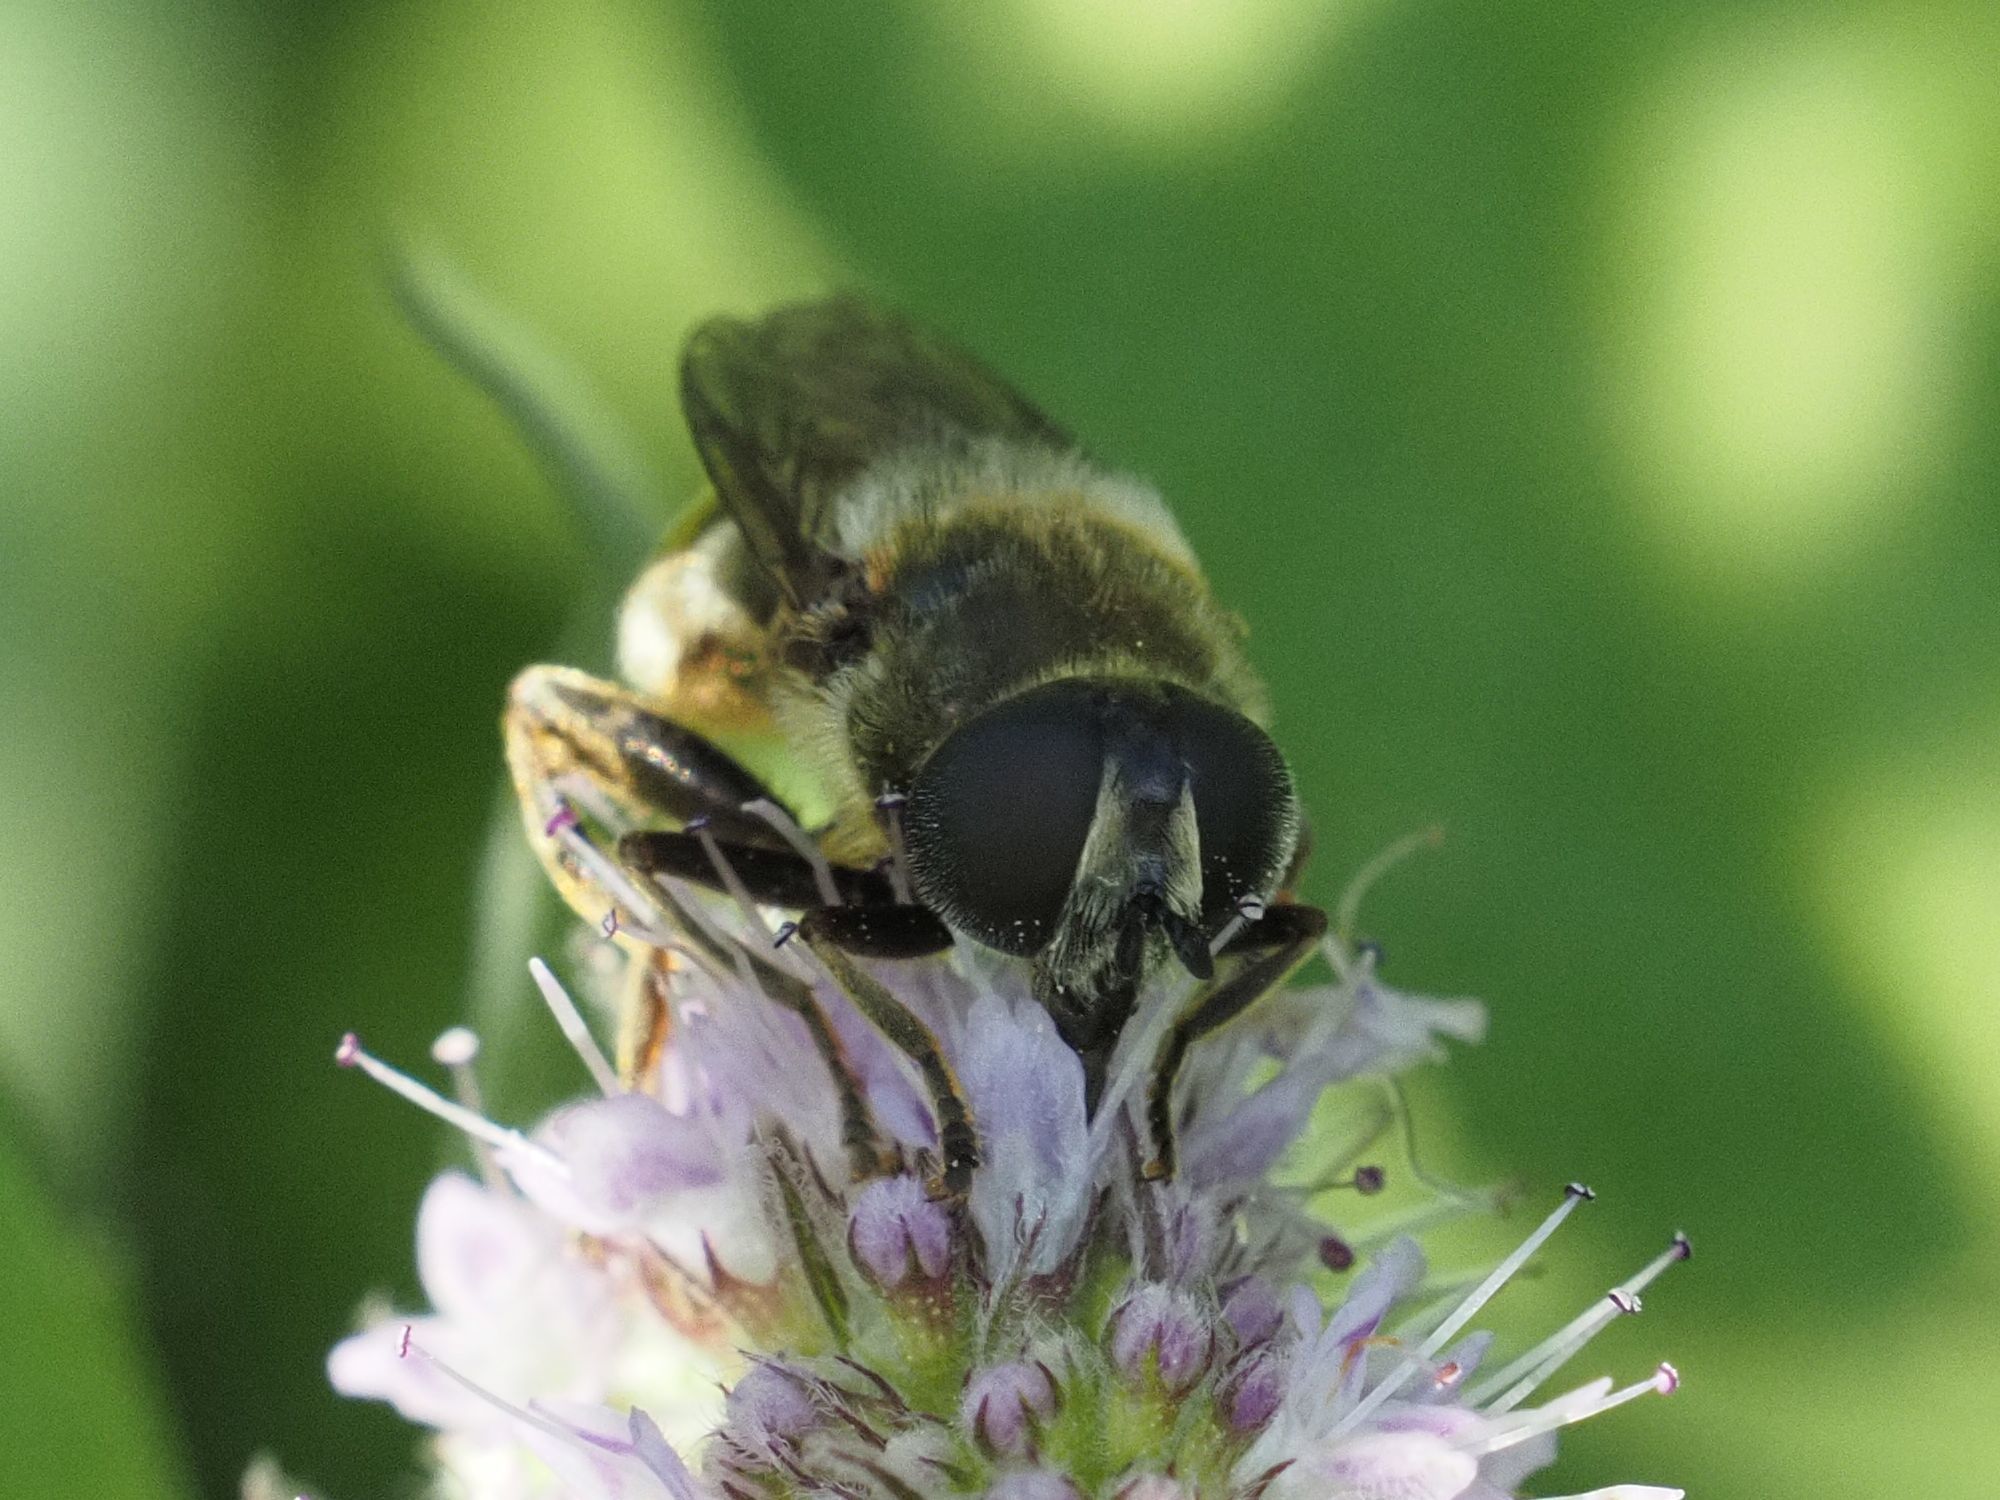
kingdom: Animalia
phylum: Arthropoda
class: Insecta
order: Diptera
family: Syrphidae
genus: Merodon
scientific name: Merodon constans
